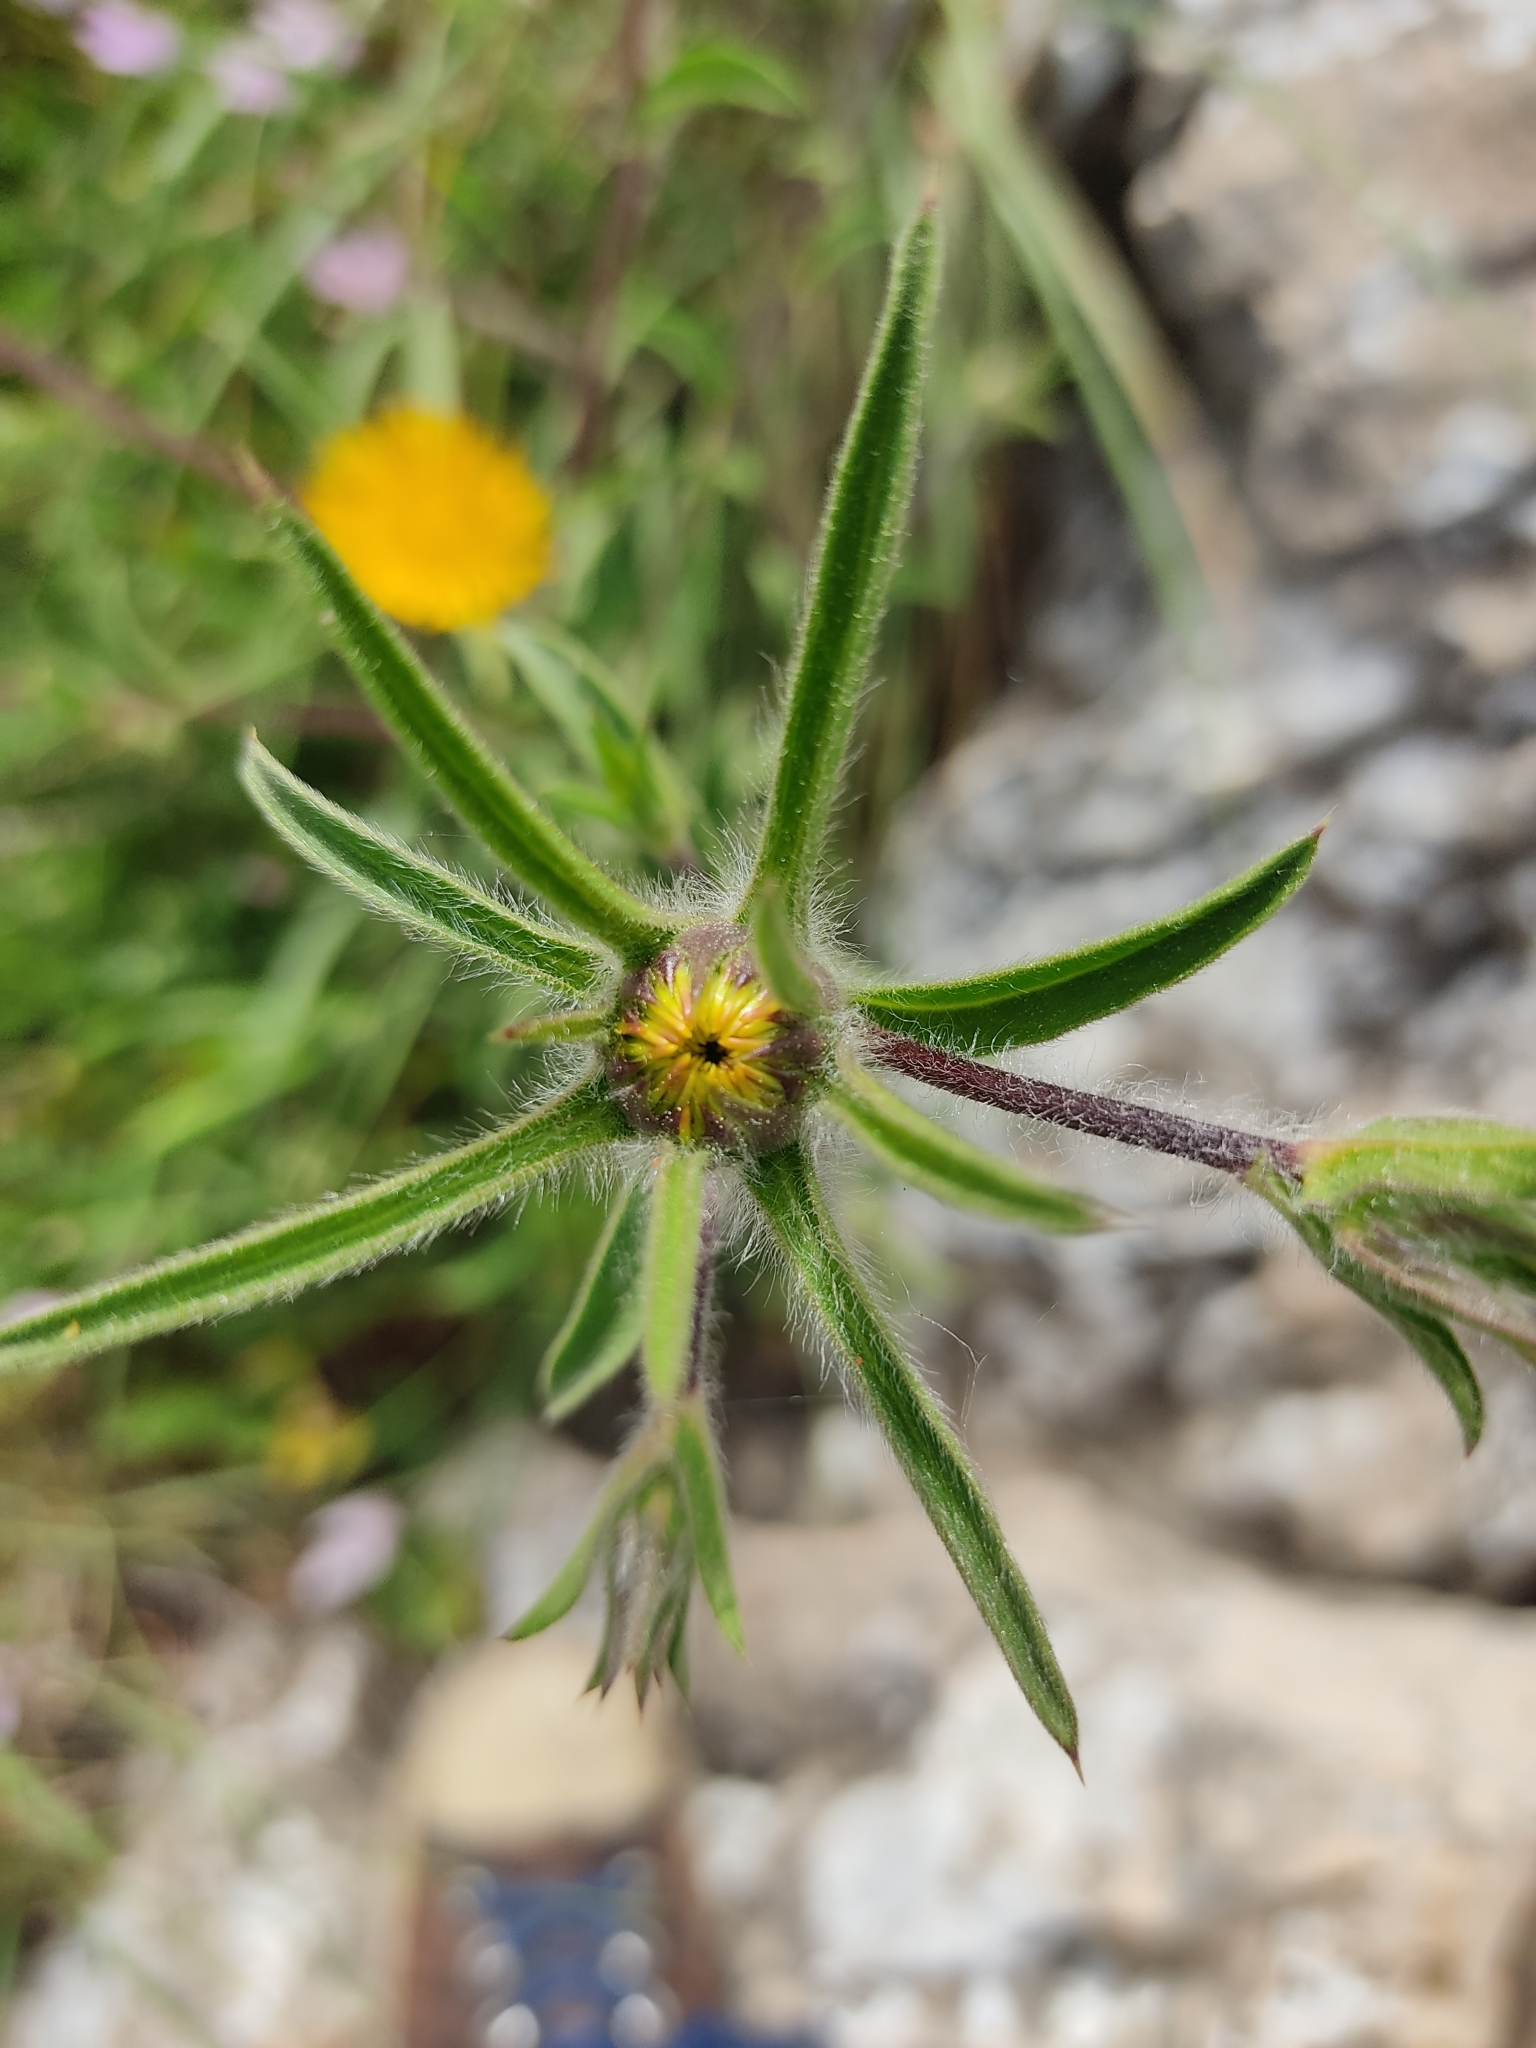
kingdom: Plantae
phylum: Tracheophyta
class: Magnoliopsida
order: Asterales
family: Asteraceae
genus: Pallenis
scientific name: Pallenis spinosa
